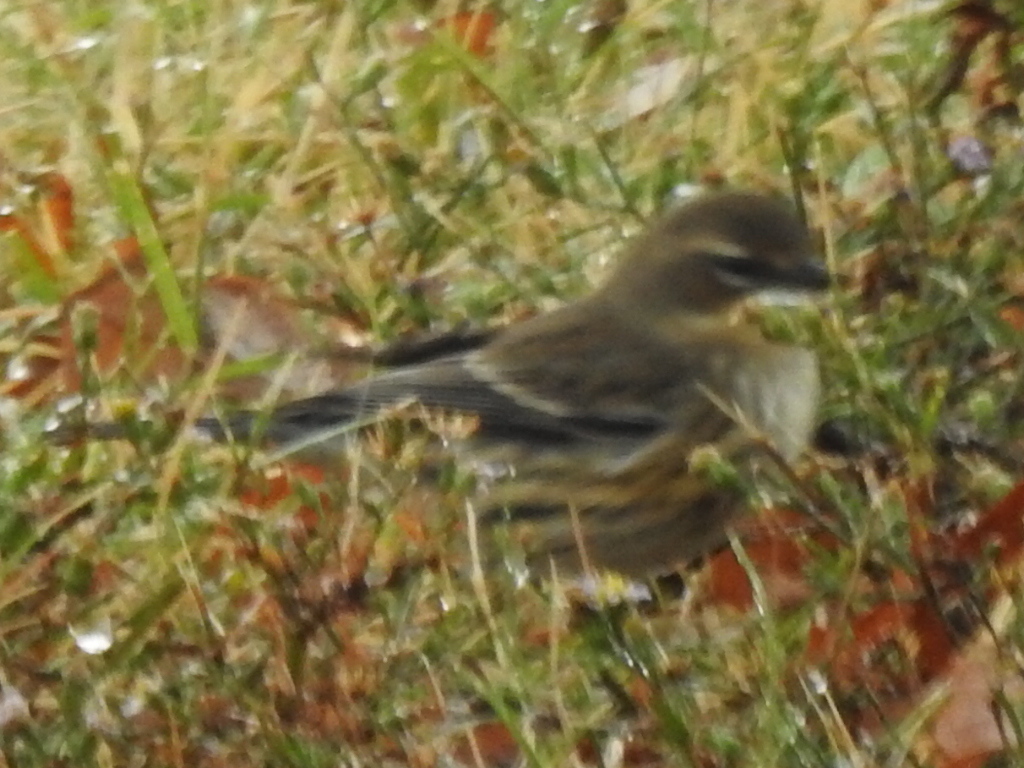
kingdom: Animalia
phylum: Chordata
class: Aves
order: Passeriformes
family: Parulidae
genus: Setophaga
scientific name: Setophaga coronata
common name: Myrtle warbler
